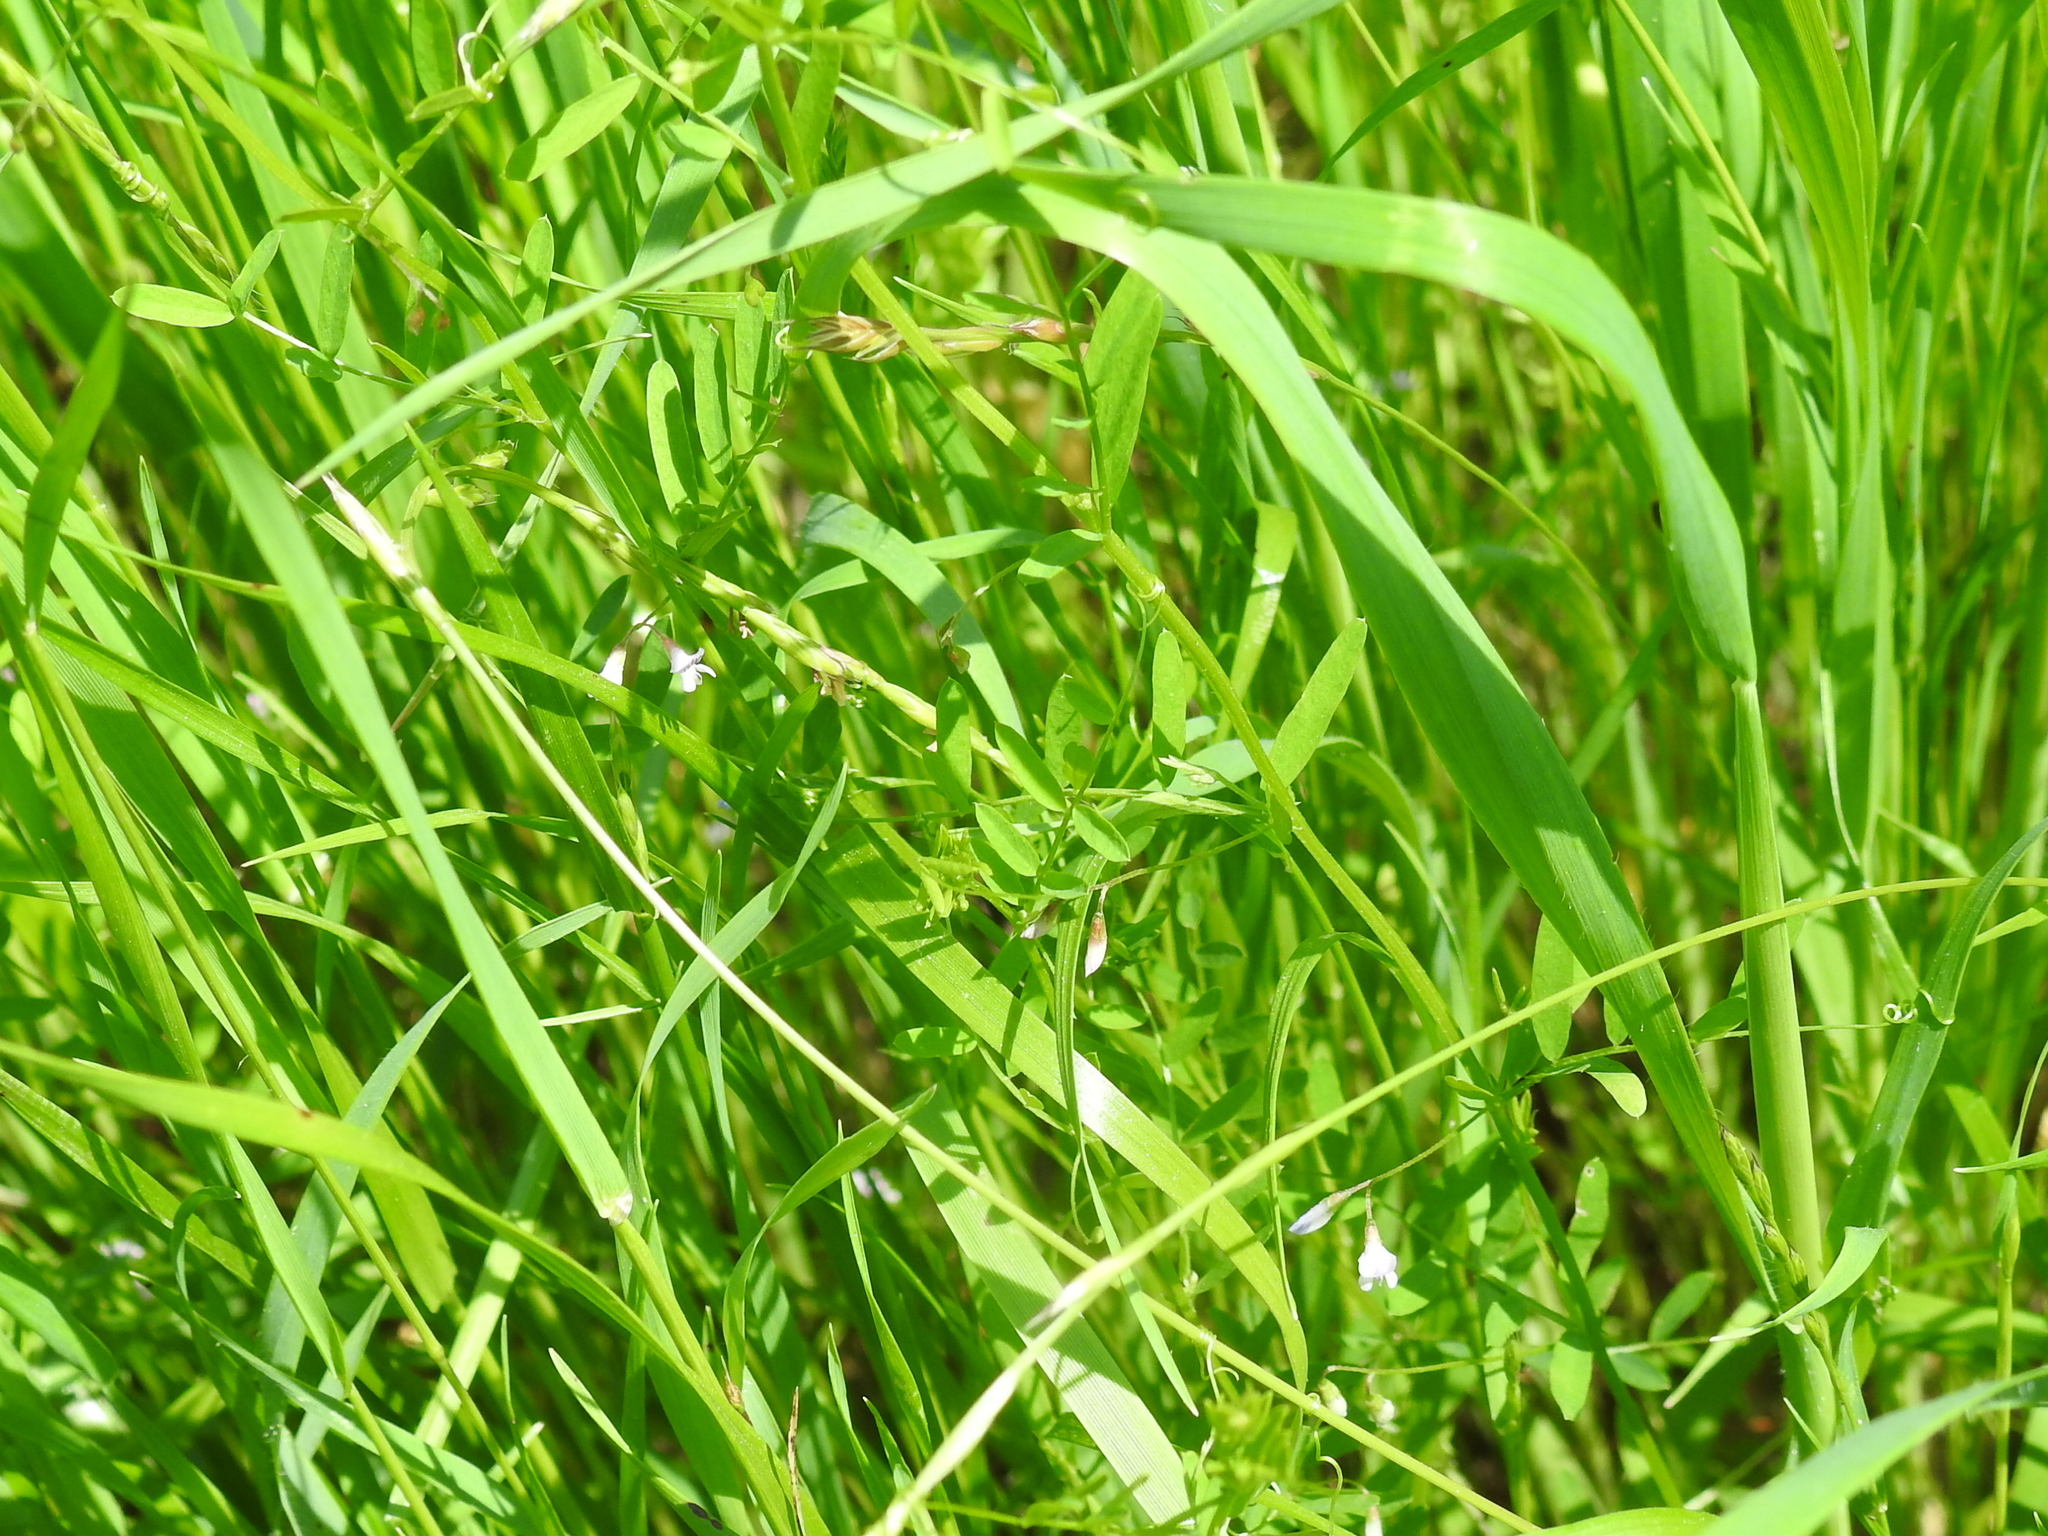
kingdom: Plantae
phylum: Tracheophyta
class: Magnoliopsida
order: Fabales
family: Fabaceae
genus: Vicia
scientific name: Vicia tetrasperma
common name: Smooth tare
